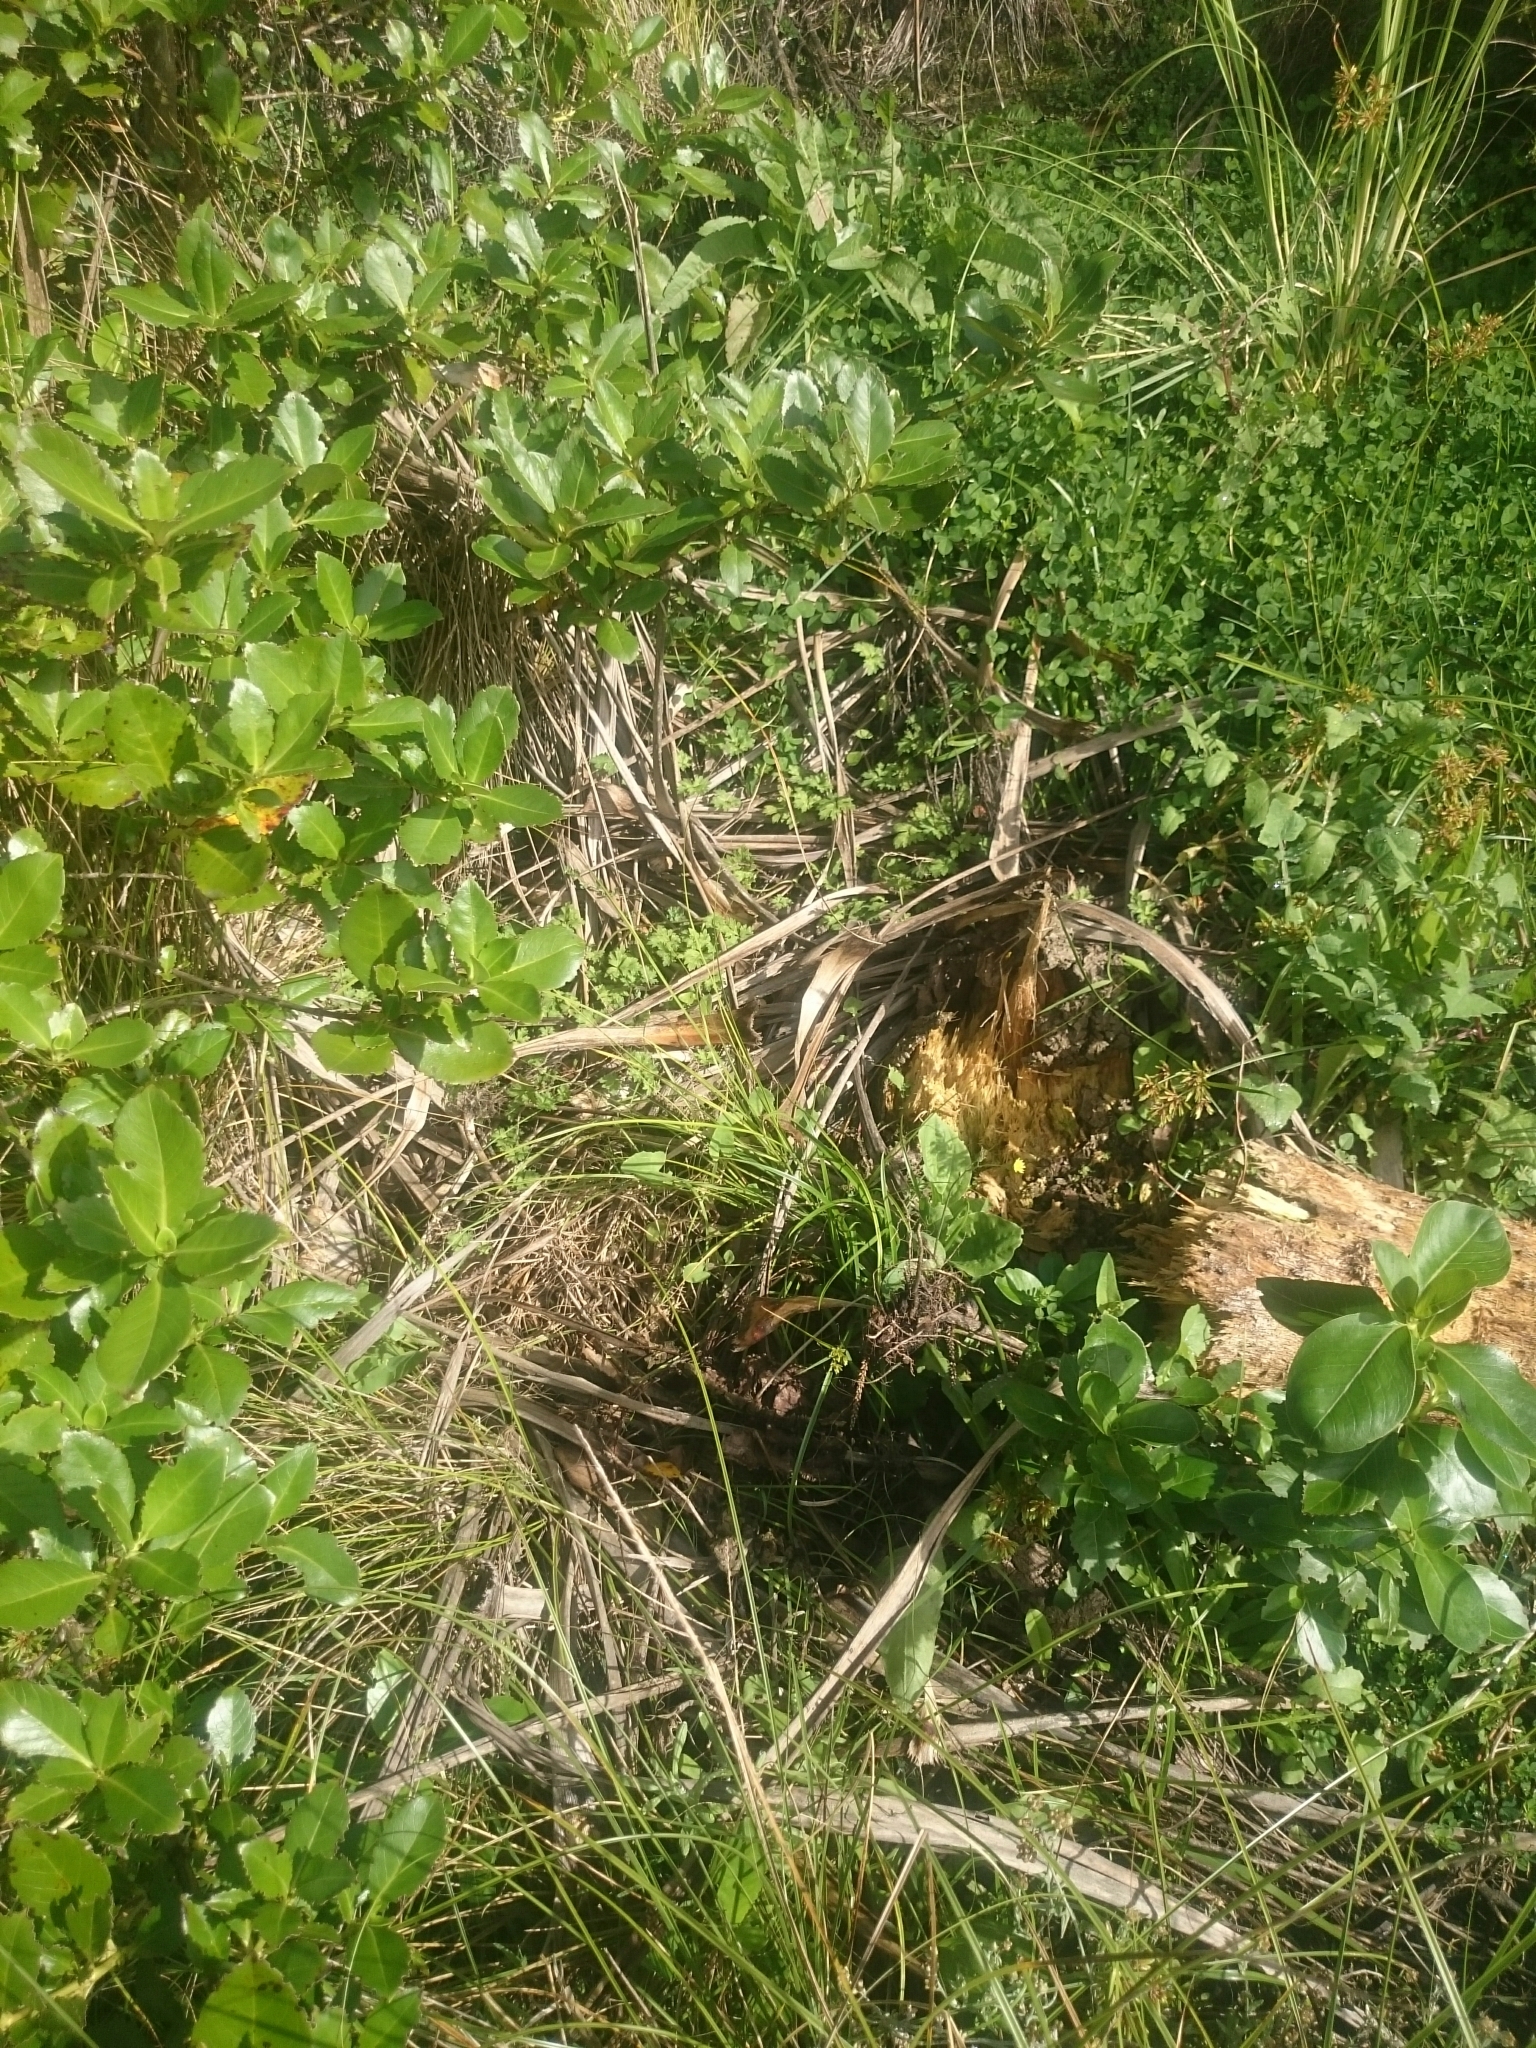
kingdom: Animalia
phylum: Chordata
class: Squamata
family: Scincidae
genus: Lampropholis
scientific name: Lampropholis delicata
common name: Plague skink
